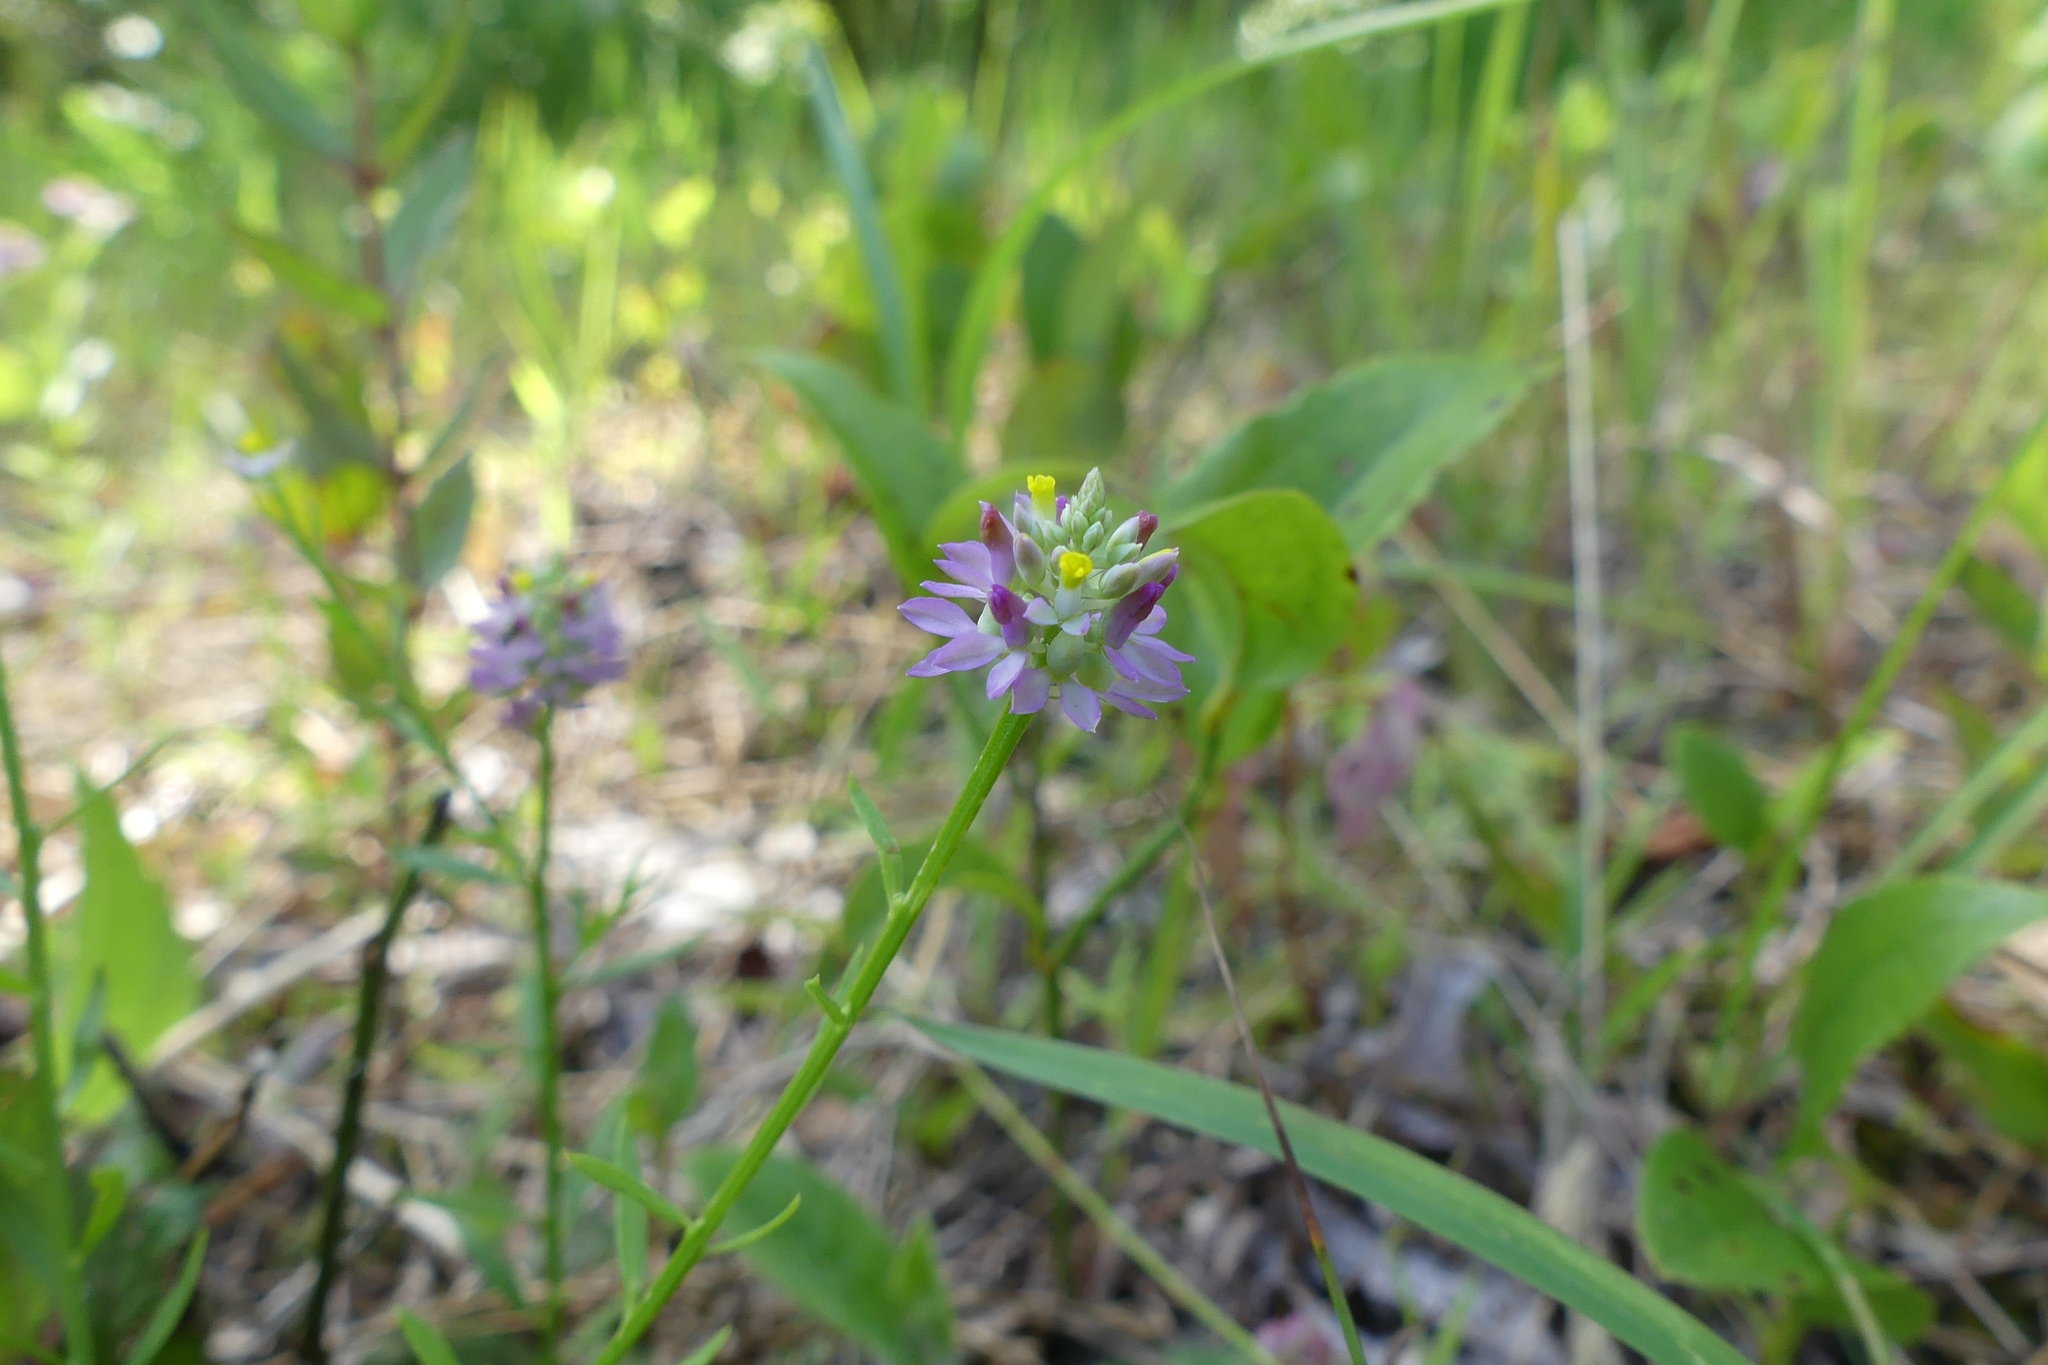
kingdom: Plantae
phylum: Tracheophyta
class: Magnoliopsida
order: Fabales
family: Polygalaceae
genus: Polygala
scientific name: Polygala curtissii
